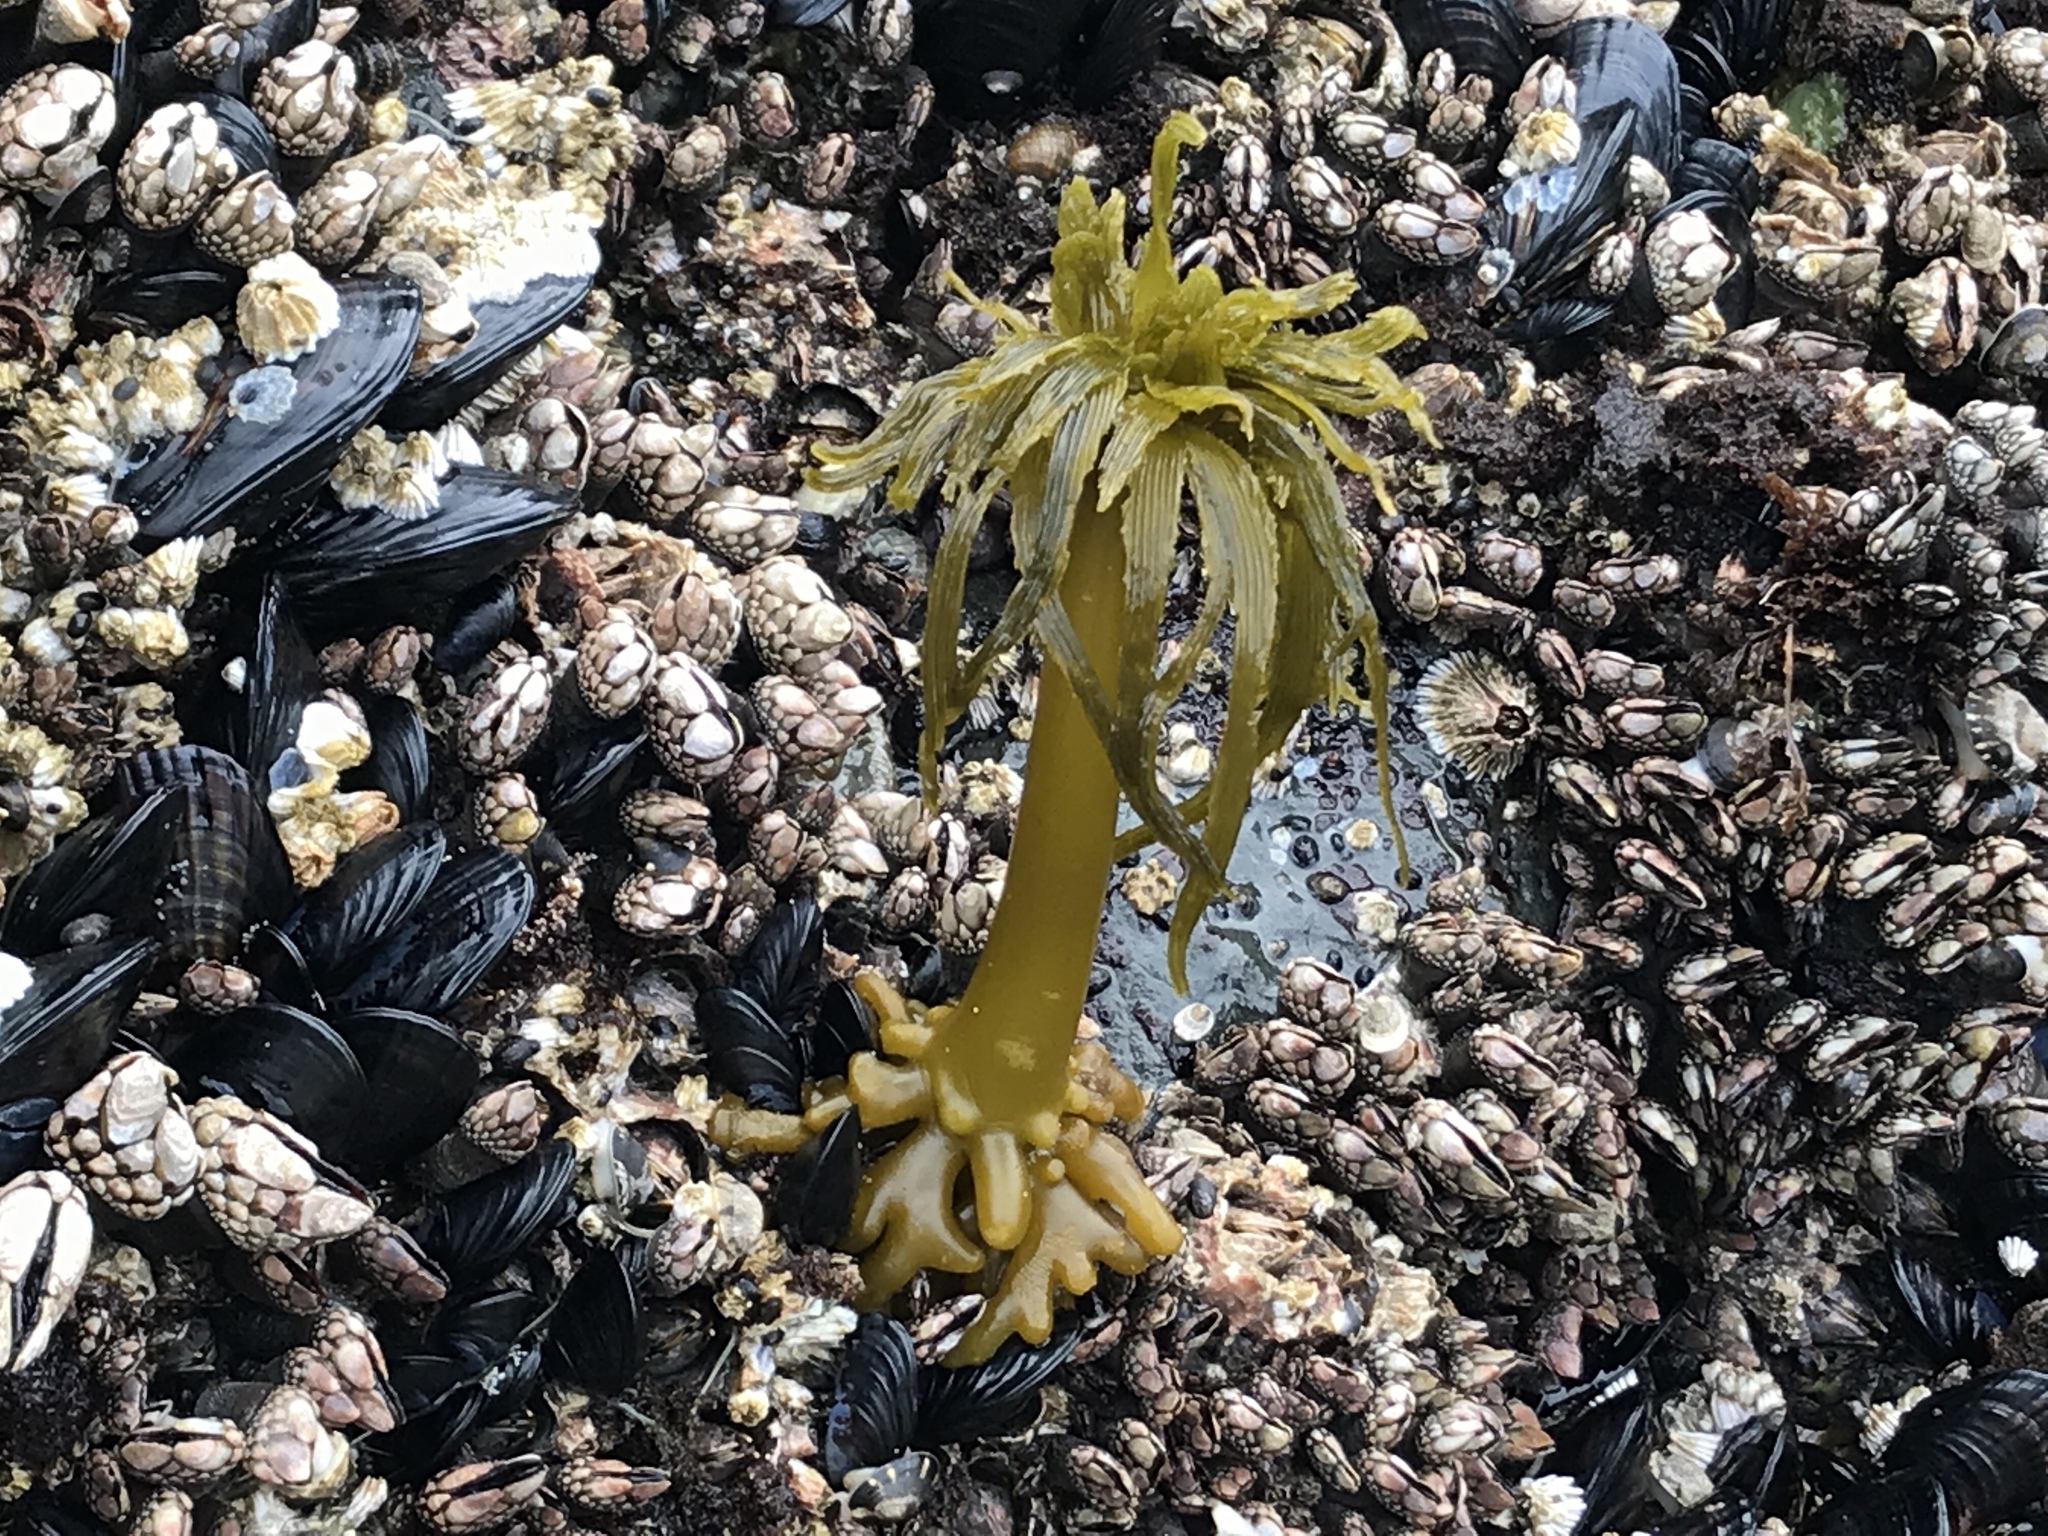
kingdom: Chromista
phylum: Ochrophyta
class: Phaeophyceae
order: Laminariales
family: Laminariaceae
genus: Postelsia
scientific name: Postelsia palmiformis
